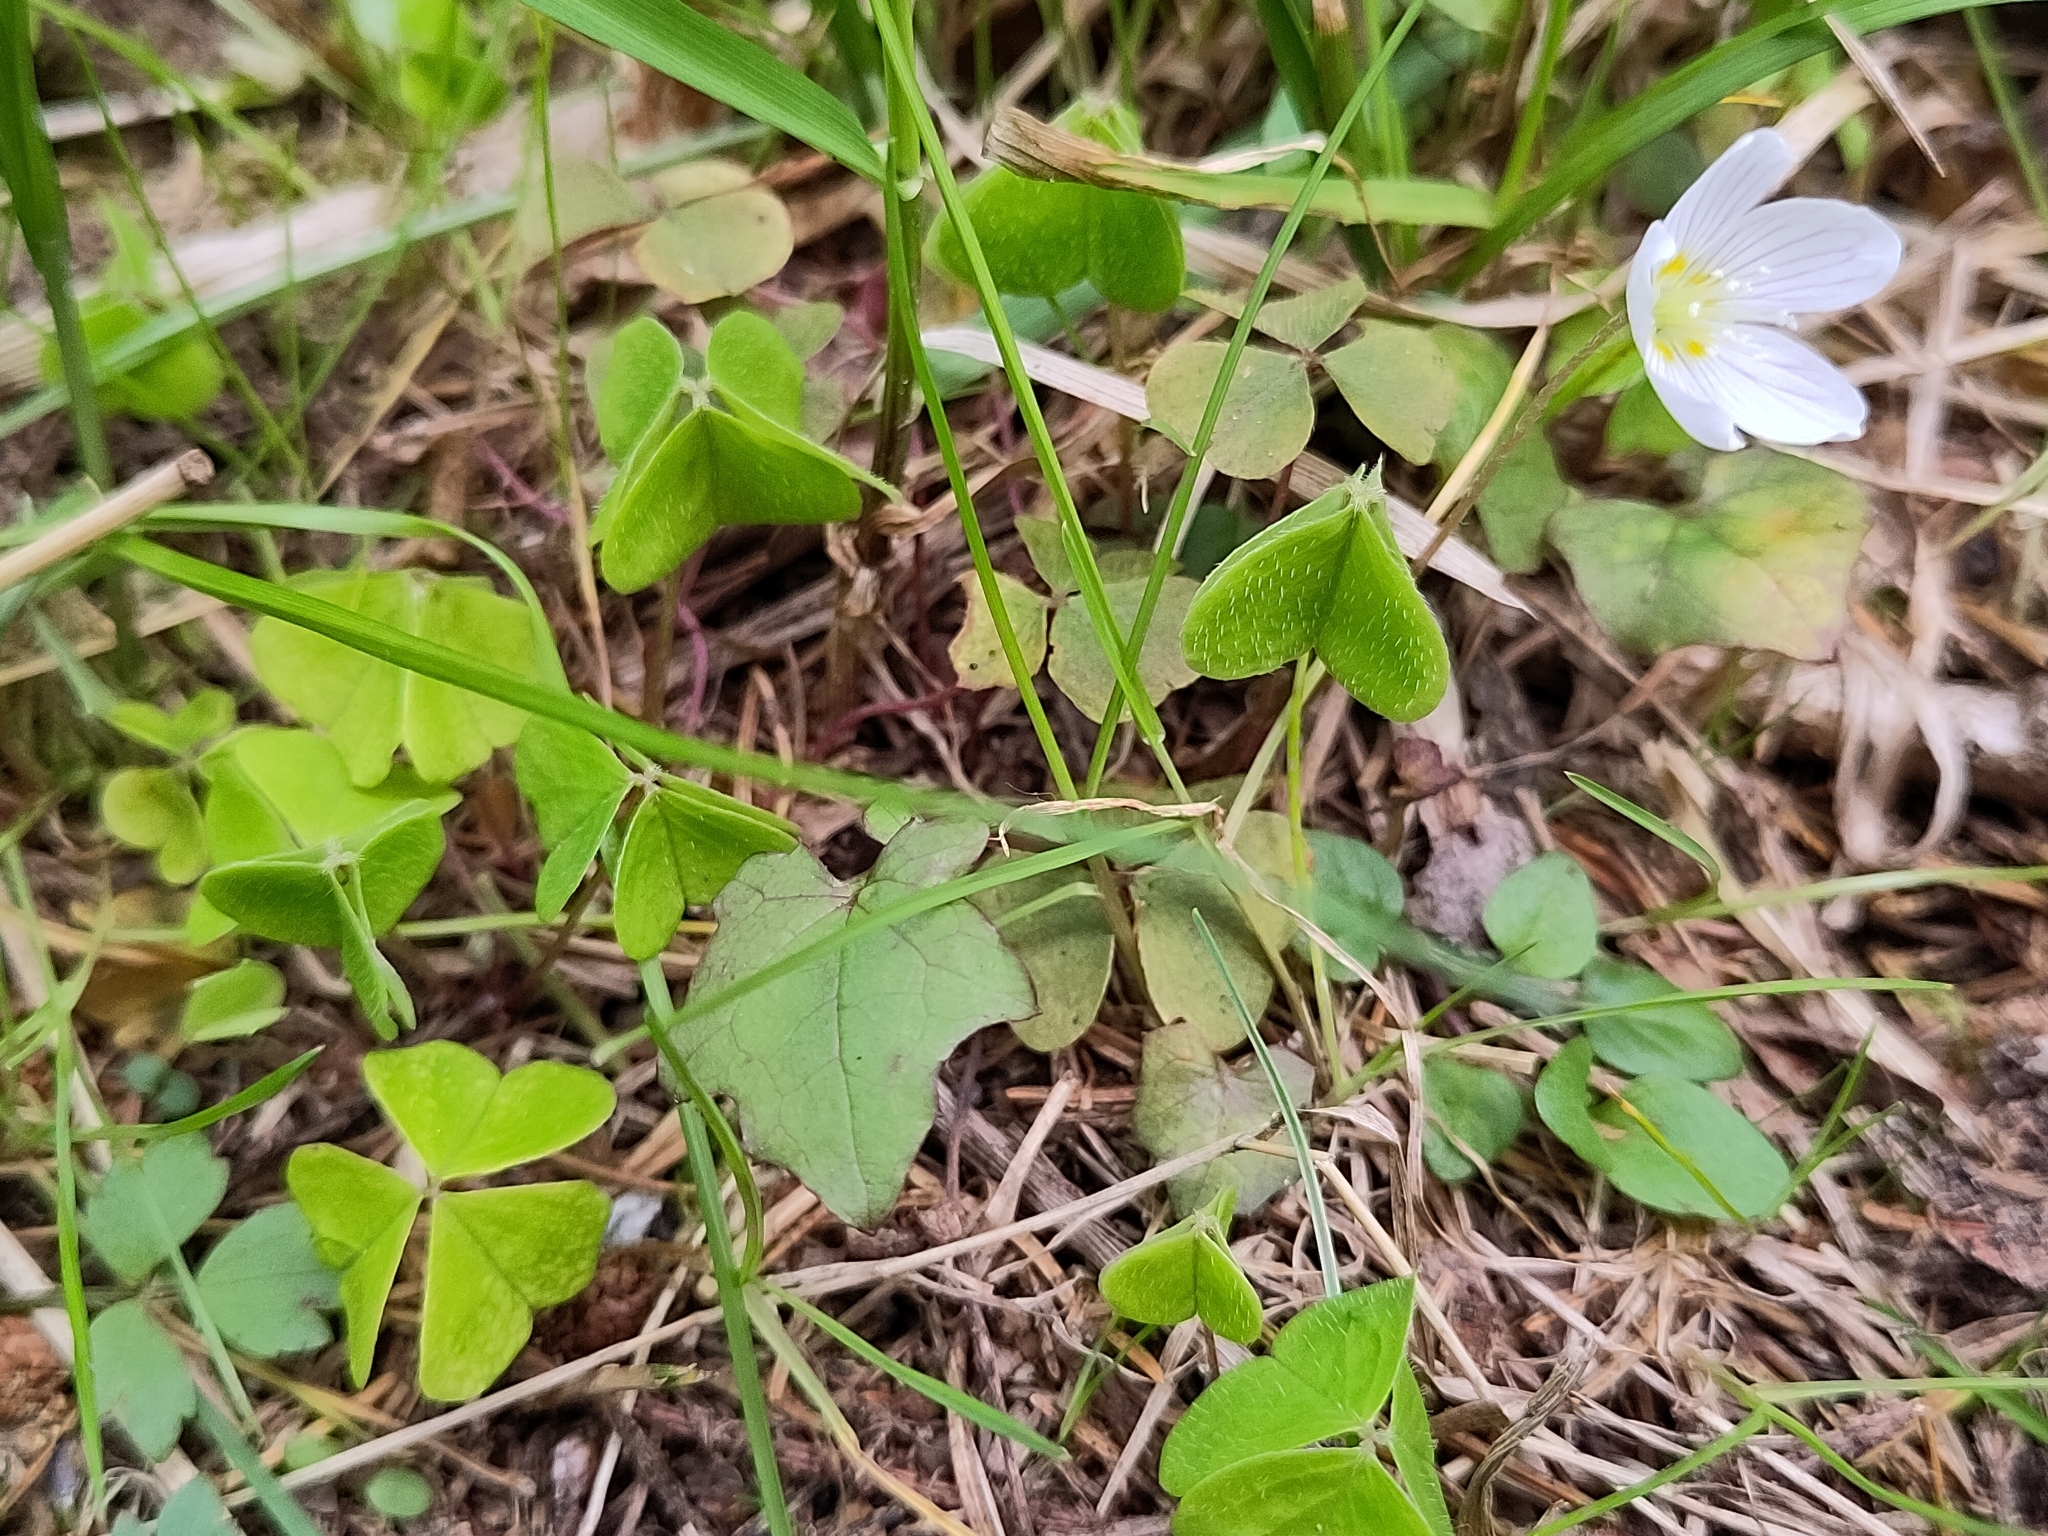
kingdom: Plantae
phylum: Tracheophyta
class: Magnoliopsida
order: Oxalidales
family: Oxalidaceae
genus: Oxalis
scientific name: Oxalis acetosella
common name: Wood-sorrel
